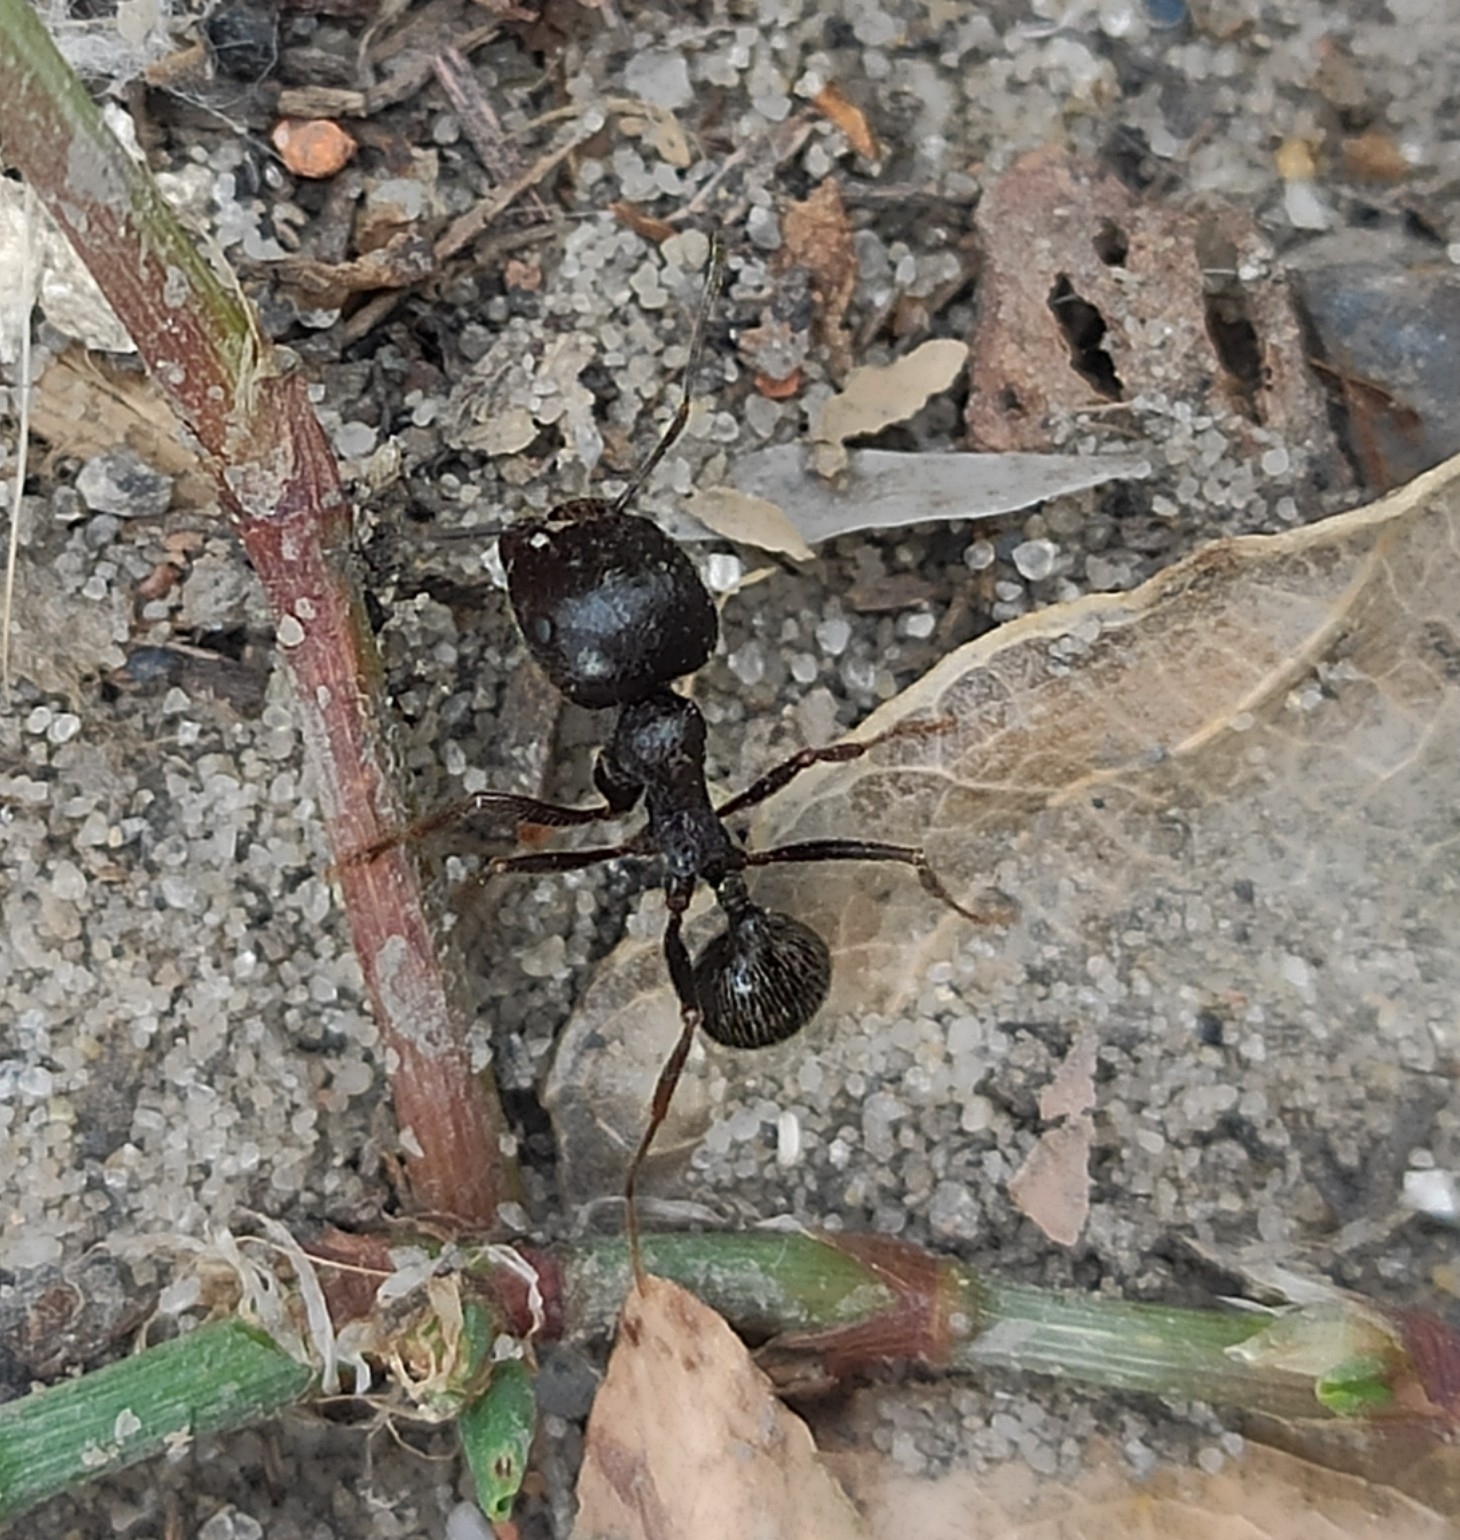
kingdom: Animalia
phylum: Arthropoda
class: Insecta
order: Hymenoptera
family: Formicidae
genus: Messor
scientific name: Messor muticus
